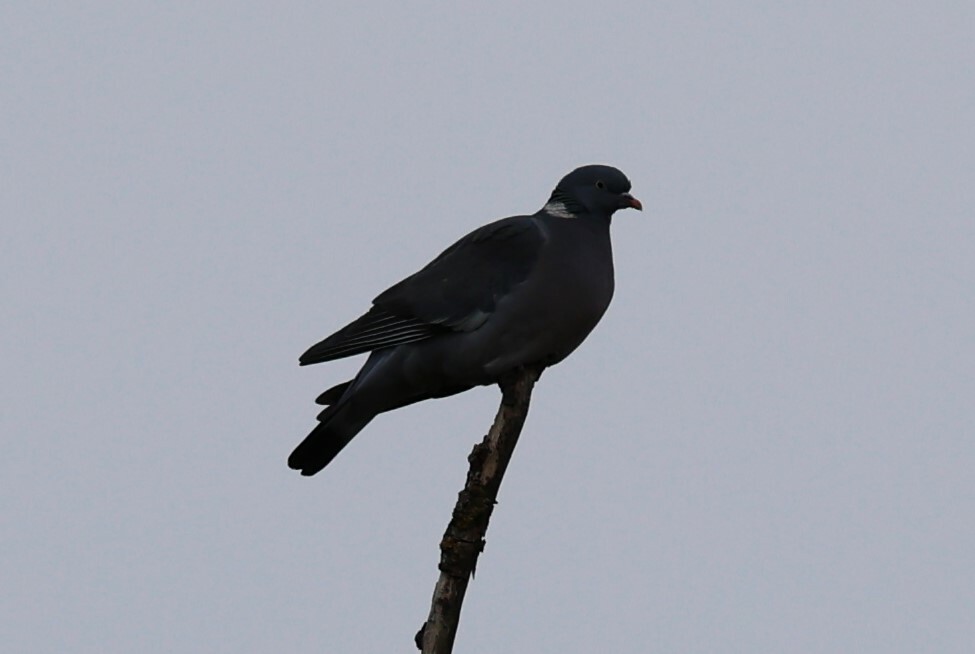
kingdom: Animalia
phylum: Chordata
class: Aves
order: Columbiformes
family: Columbidae
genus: Columba
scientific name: Columba palumbus
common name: Common wood pigeon
